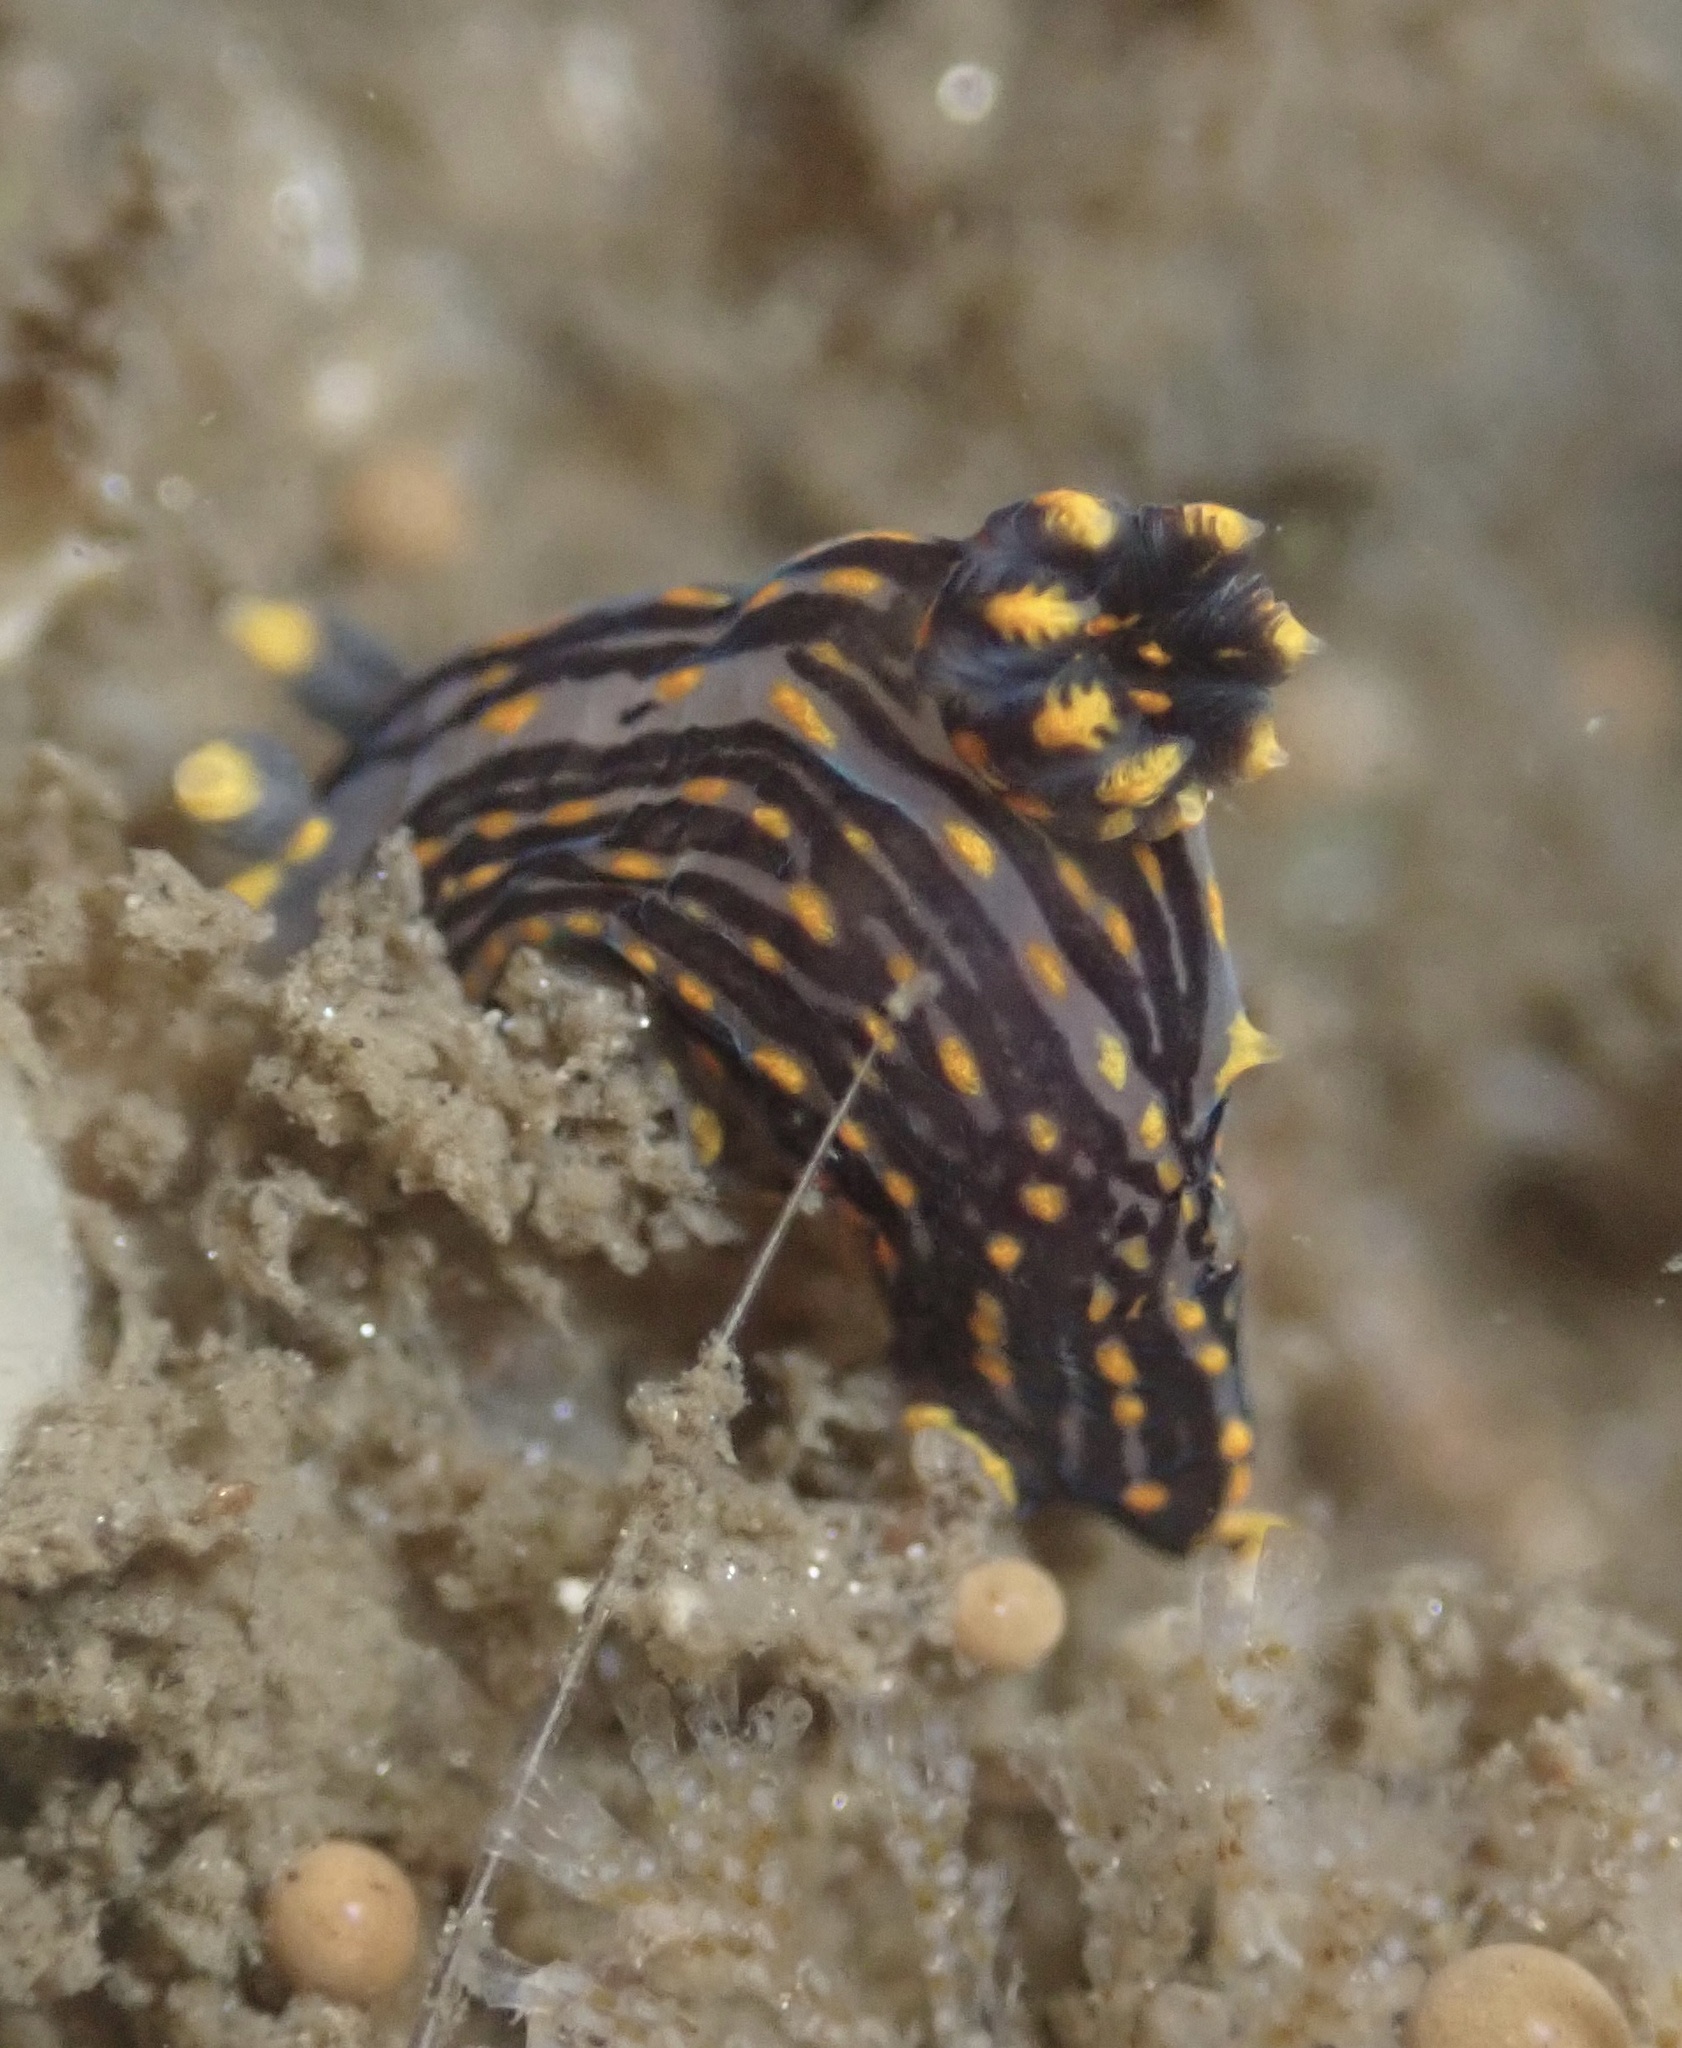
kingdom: Animalia
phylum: Mollusca
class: Gastropoda
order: Nudibranchia
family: Polyceridae
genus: Polycera
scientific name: Polycera atra
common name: Orange-spike polycera
